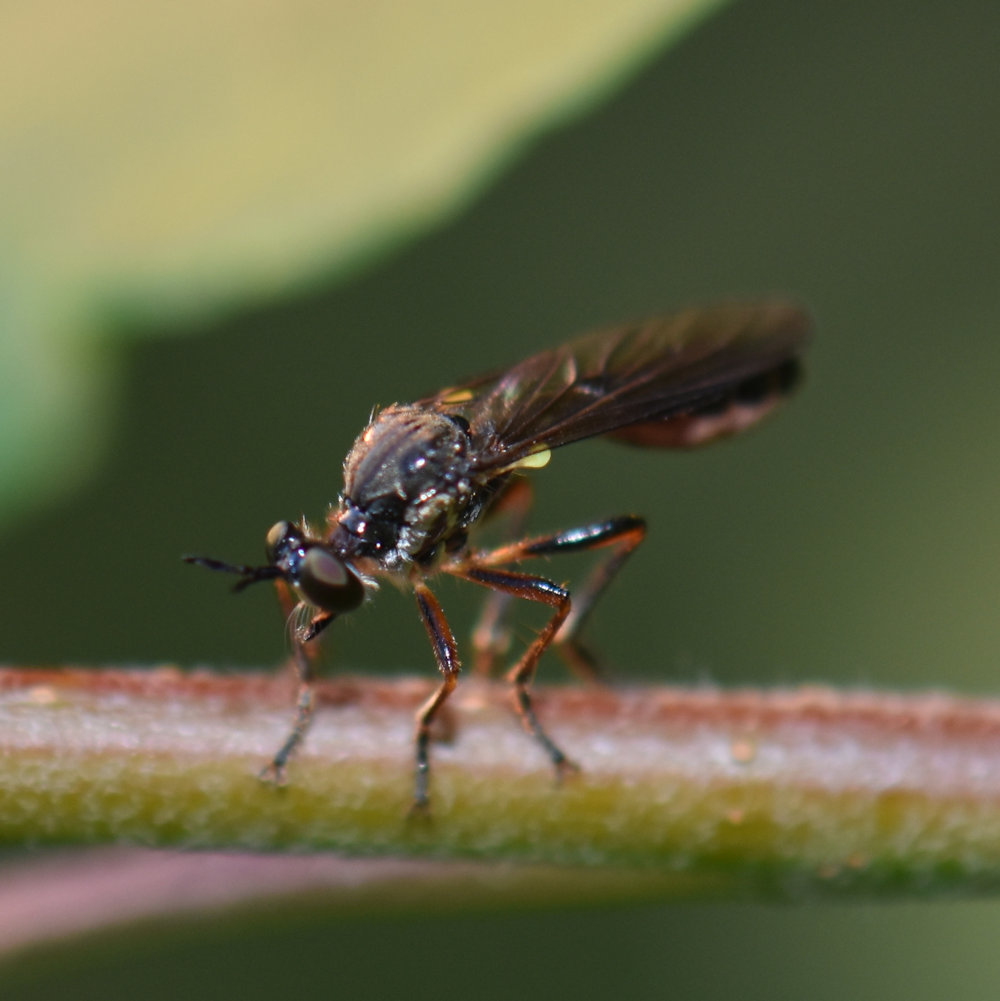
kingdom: Animalia
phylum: Arthropoda
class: Insecta
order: Diptera
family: Asilidae
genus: Dioctria
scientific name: Dioctria hyalipennis
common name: Stripe-legged robberfly
